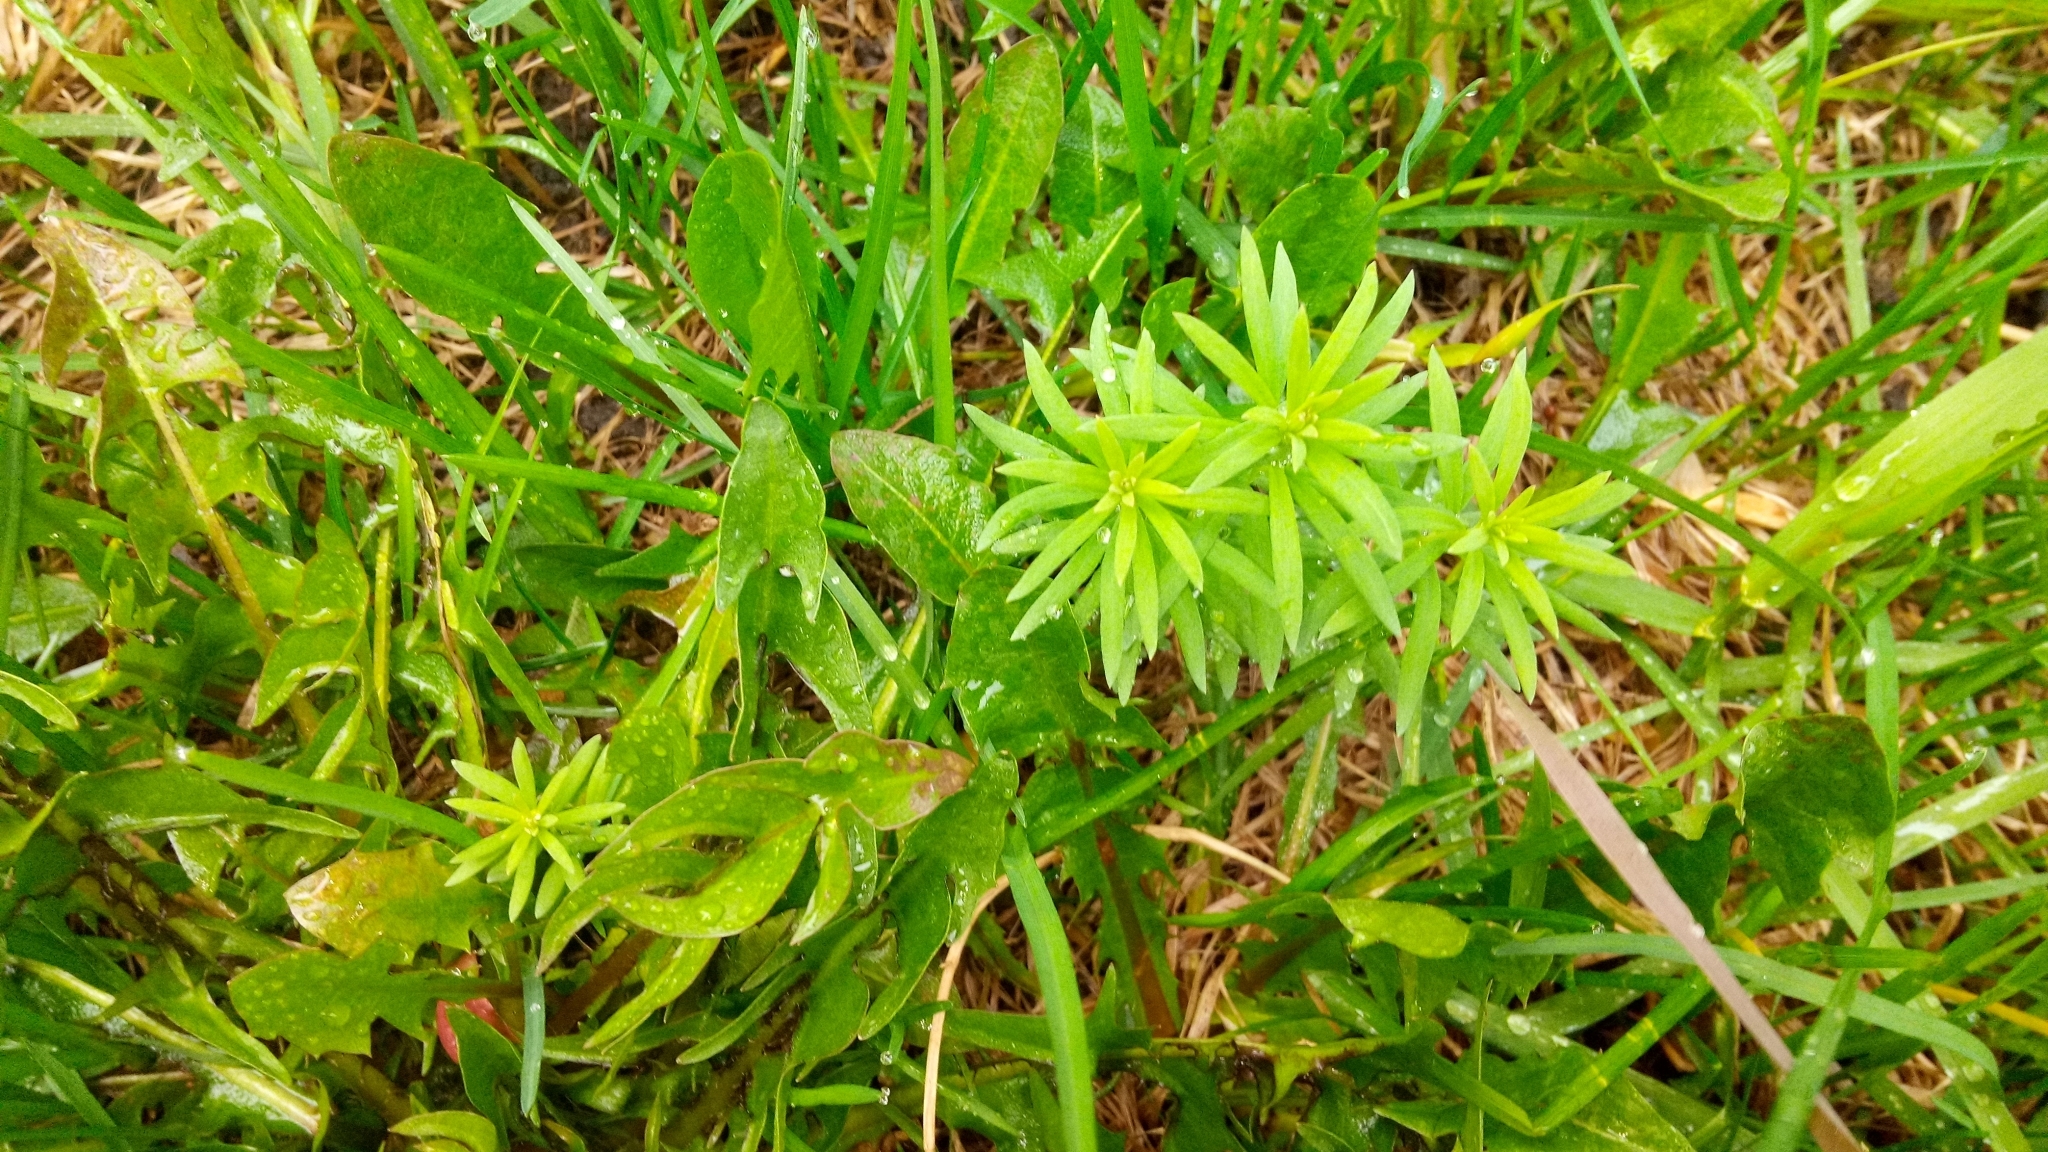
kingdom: Plantae
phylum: Tracheophyta
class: Magnoliopsida
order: Lamiales
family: Plantaginaceae
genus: Linaria
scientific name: Linaria vulgaris
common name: Butter and eggs
